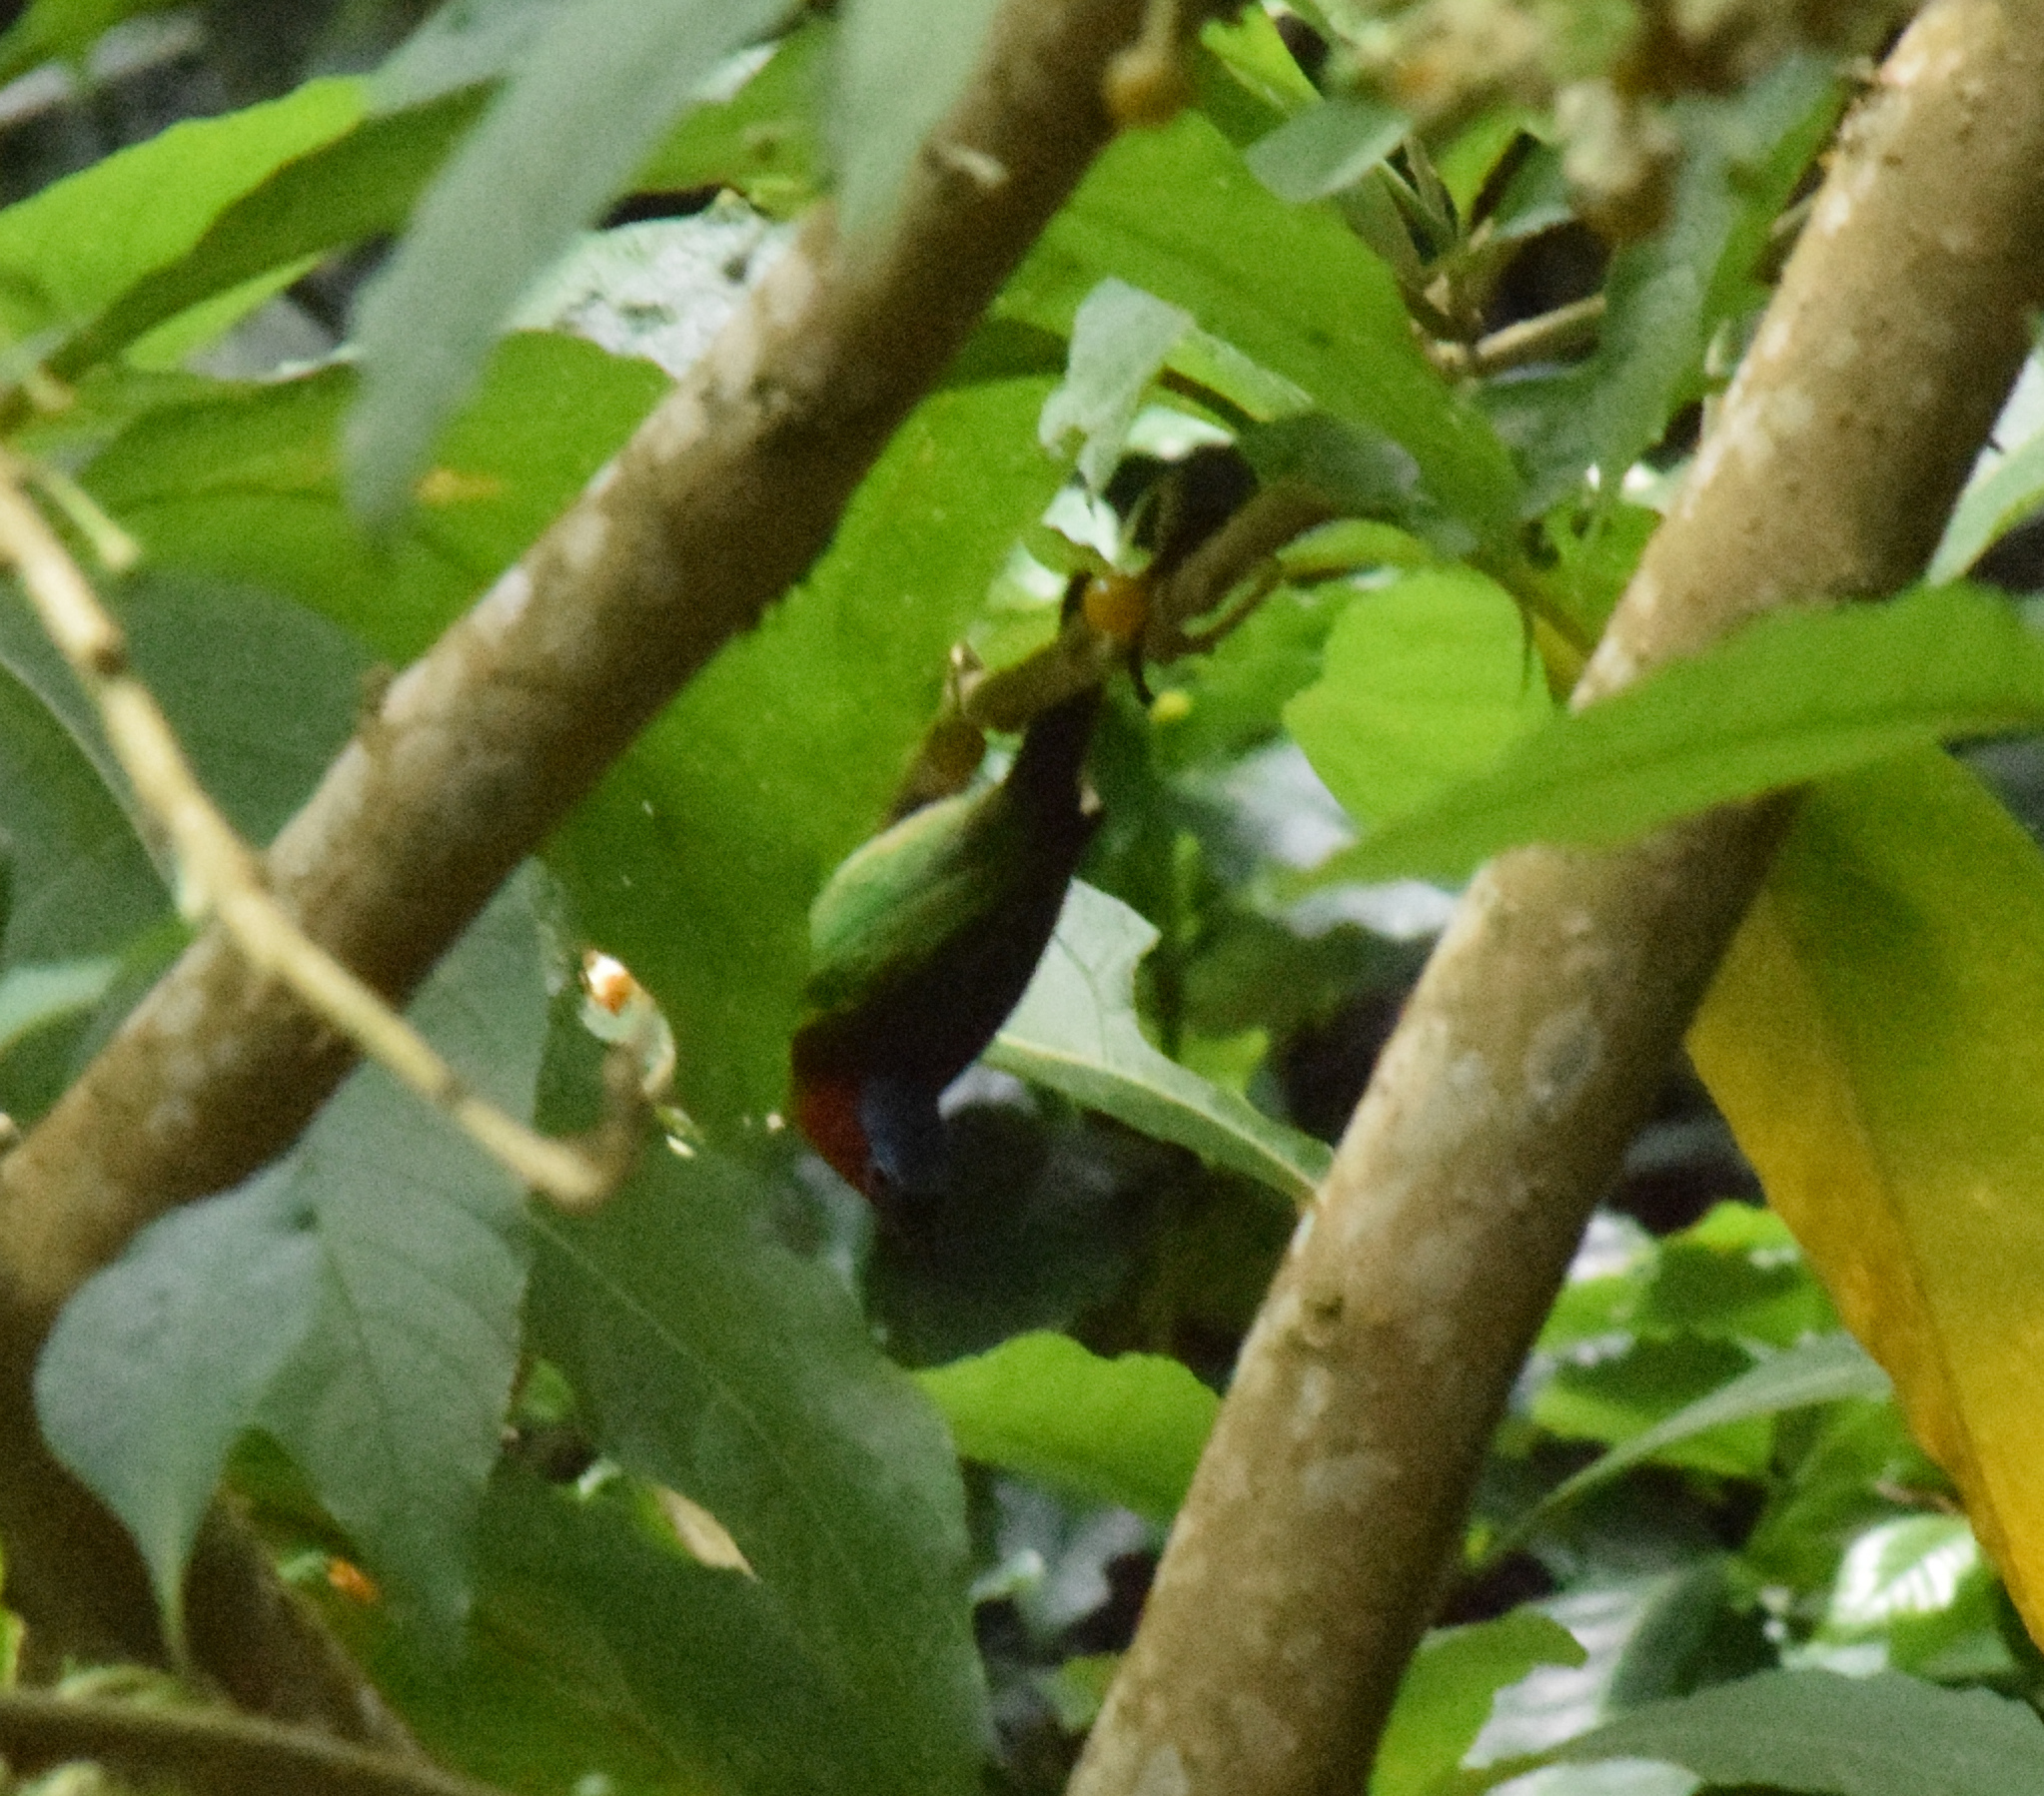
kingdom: Animalia
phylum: Chordata
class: Aves
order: Passeriformes
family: Thraupidae
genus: Tangara
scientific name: Tangara cyanocephala
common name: Red-necked tanager
